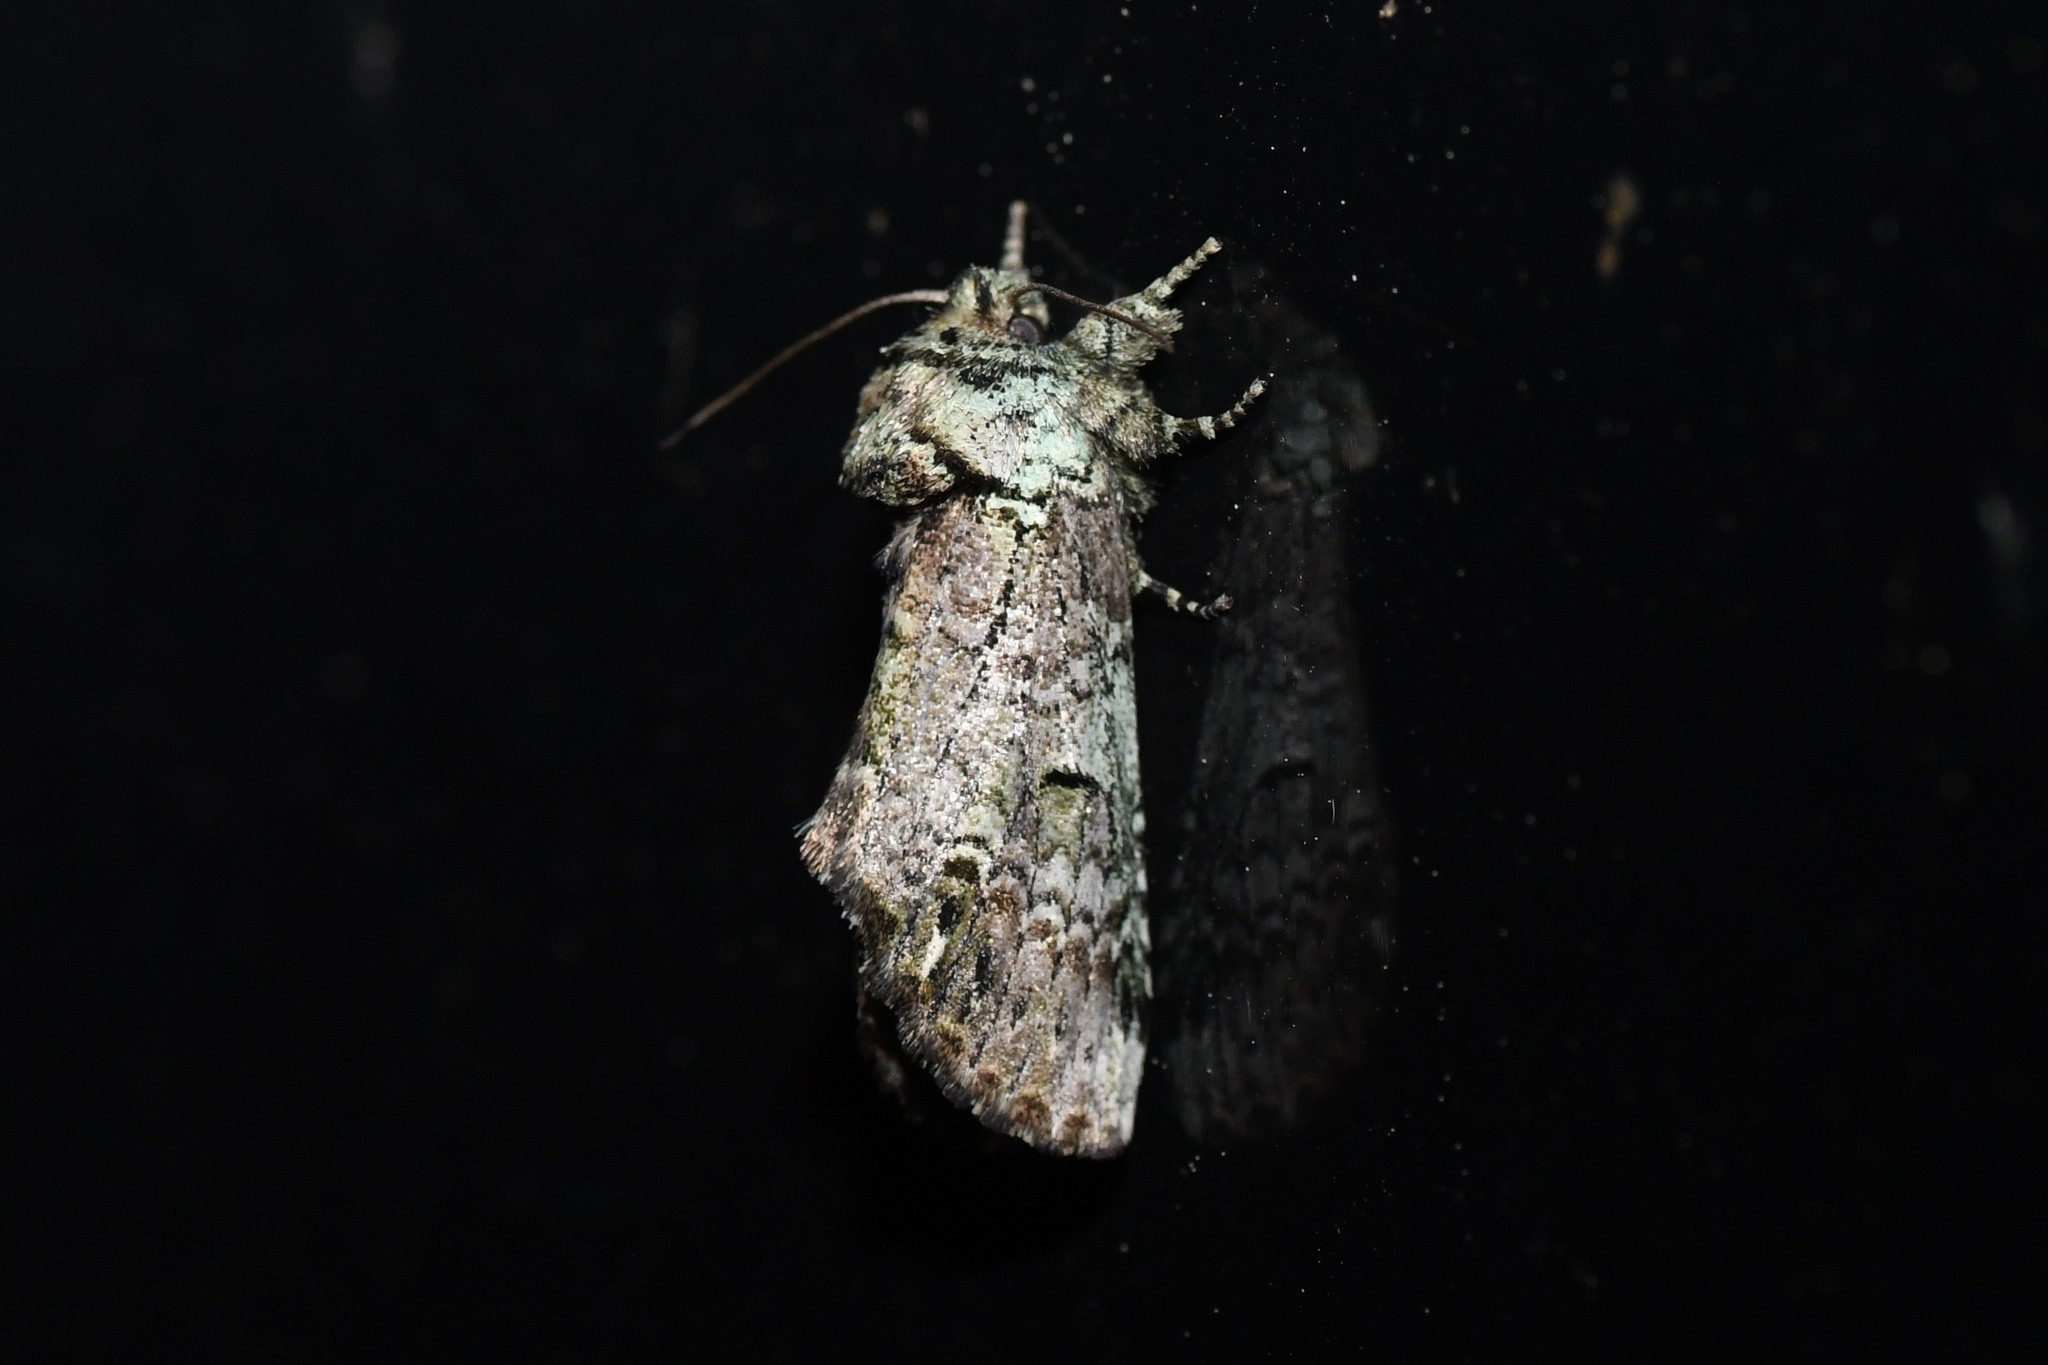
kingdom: Animalia
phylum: Arthropoda
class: Insecta
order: Lepidoptera
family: Notodontidae
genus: Schizura
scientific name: Schizura
